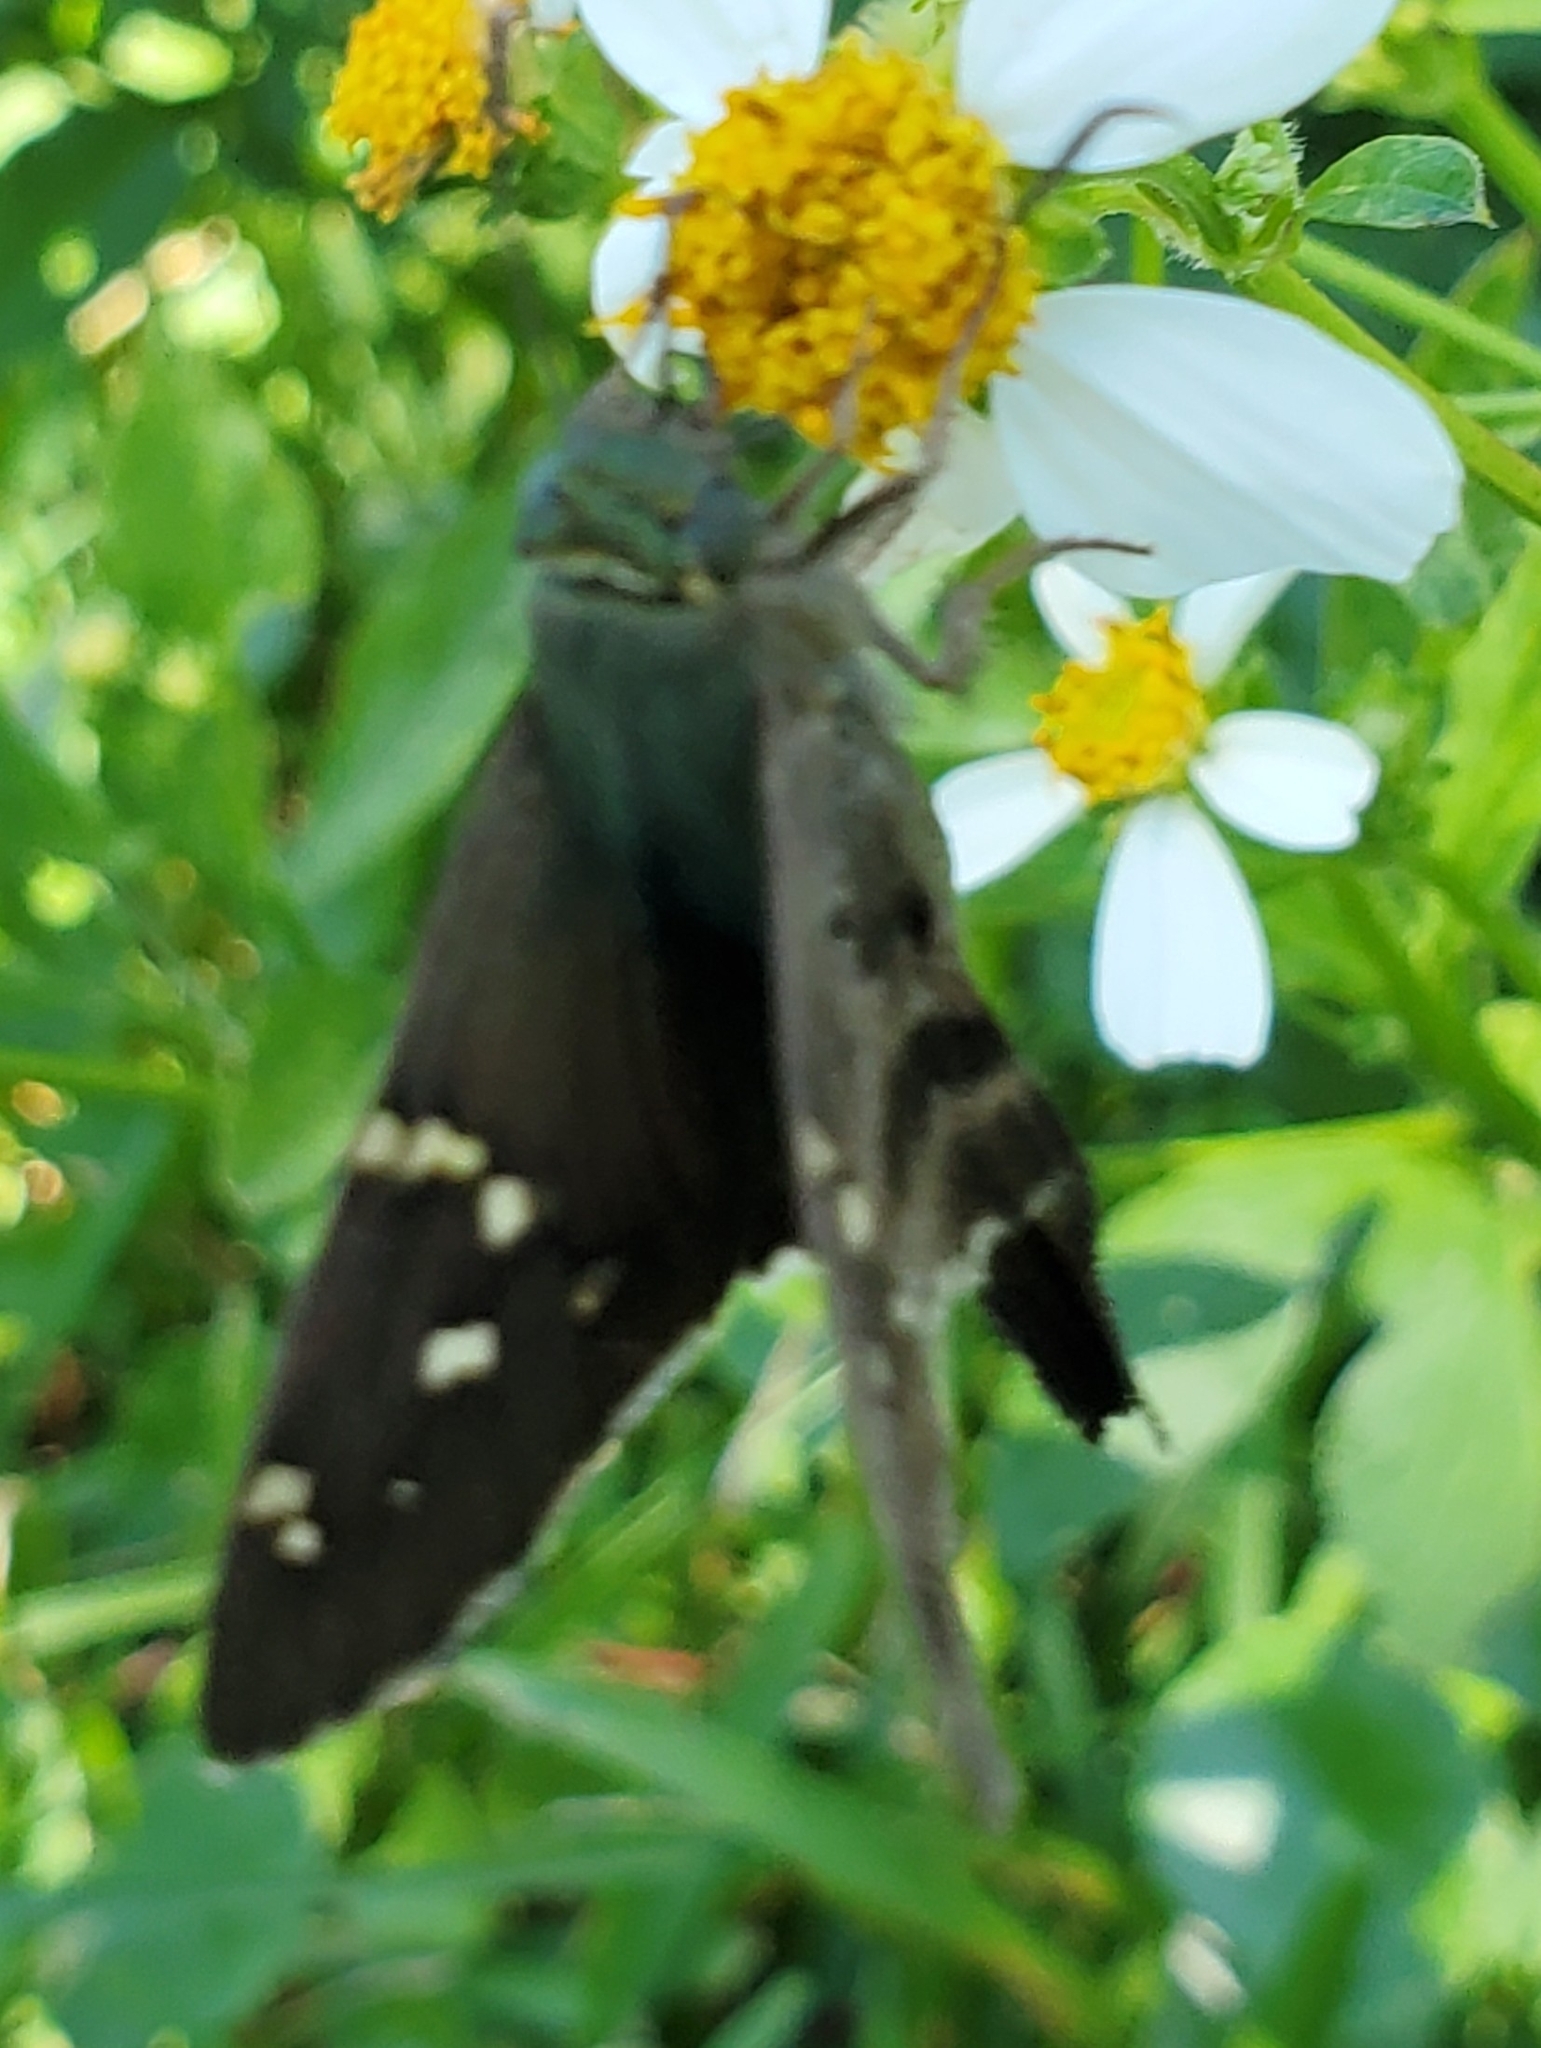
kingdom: Animalia
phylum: Arthropoda
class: Insecta
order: Lepidoptera
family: Hesperiidae
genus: Urbanus
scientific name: Urbanus proteus
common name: Long-tailed skipper
